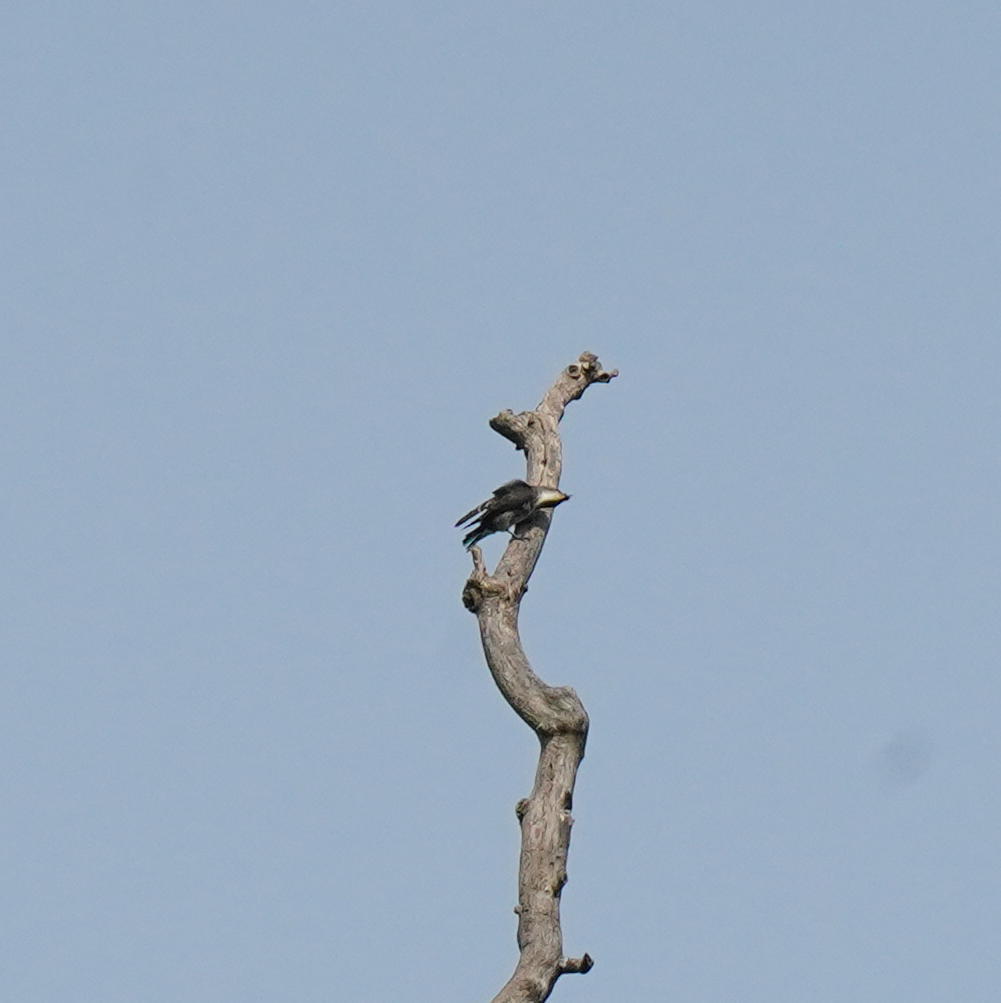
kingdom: Animalia
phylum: Chordata
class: Aves
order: Passeriformes
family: Tyrannidae
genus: Contopus
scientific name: Contopus cooperi
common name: Olive-sided flycatcher
